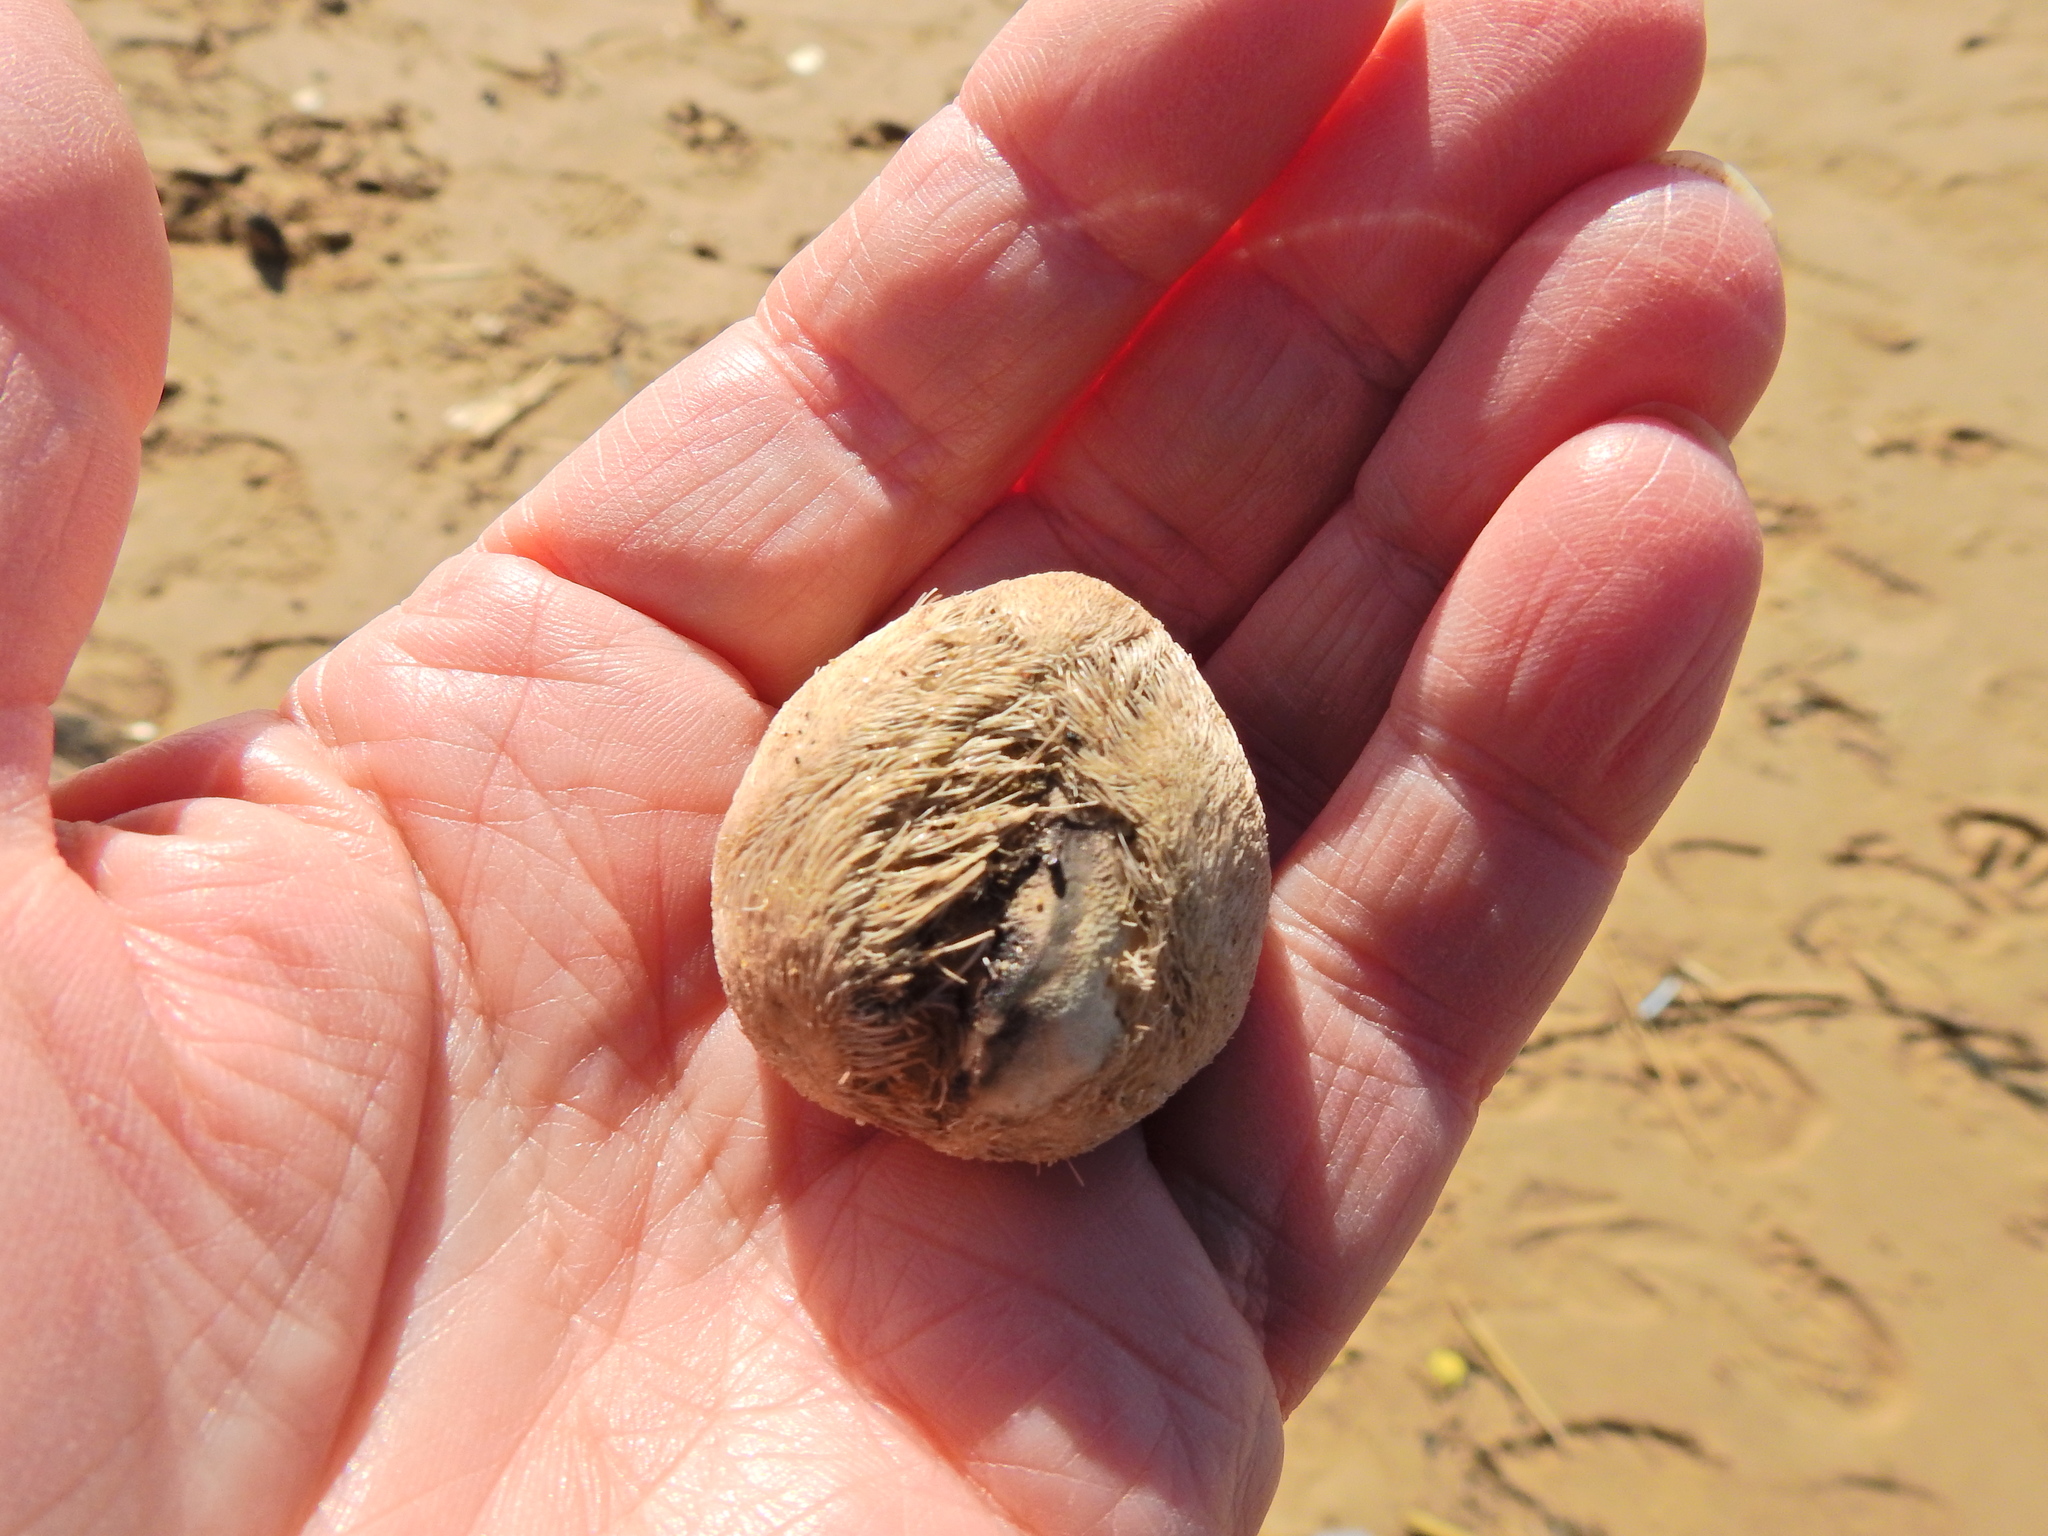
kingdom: Animalia
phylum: Echinodermata
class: Echinoidea
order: Spatangoida
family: Loveniidae
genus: Echinocardium
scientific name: Echinocardium cordatum
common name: Heart-urchin
